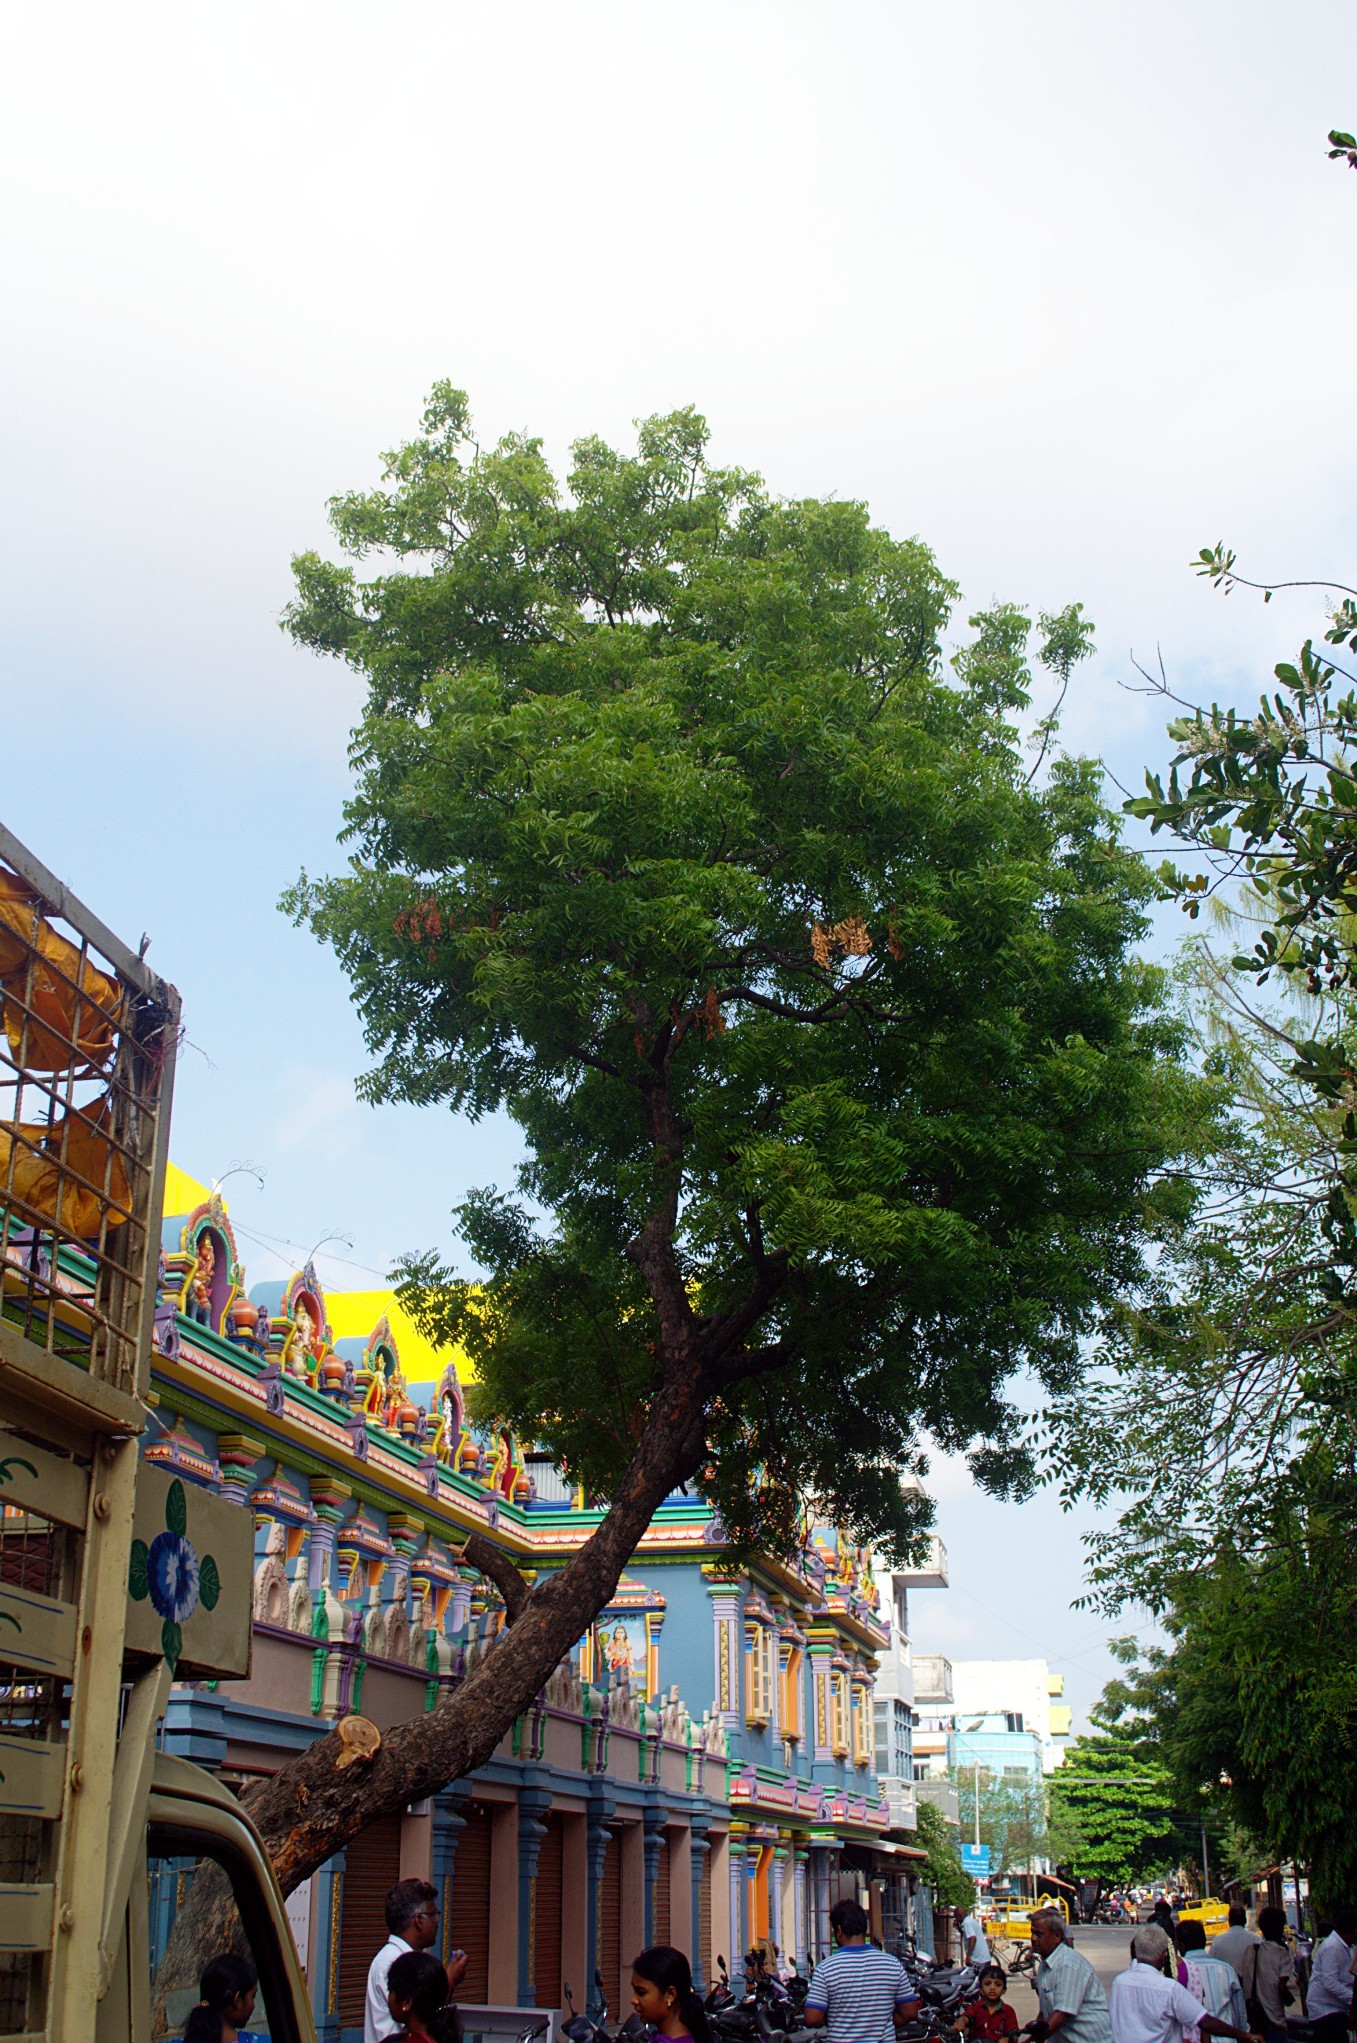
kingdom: Plantae
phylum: Tracheophyta
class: Magnoliopsida
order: Sapindales
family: Meliaceae
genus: Azadirachta
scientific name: Azadirachta indica
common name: Neem
